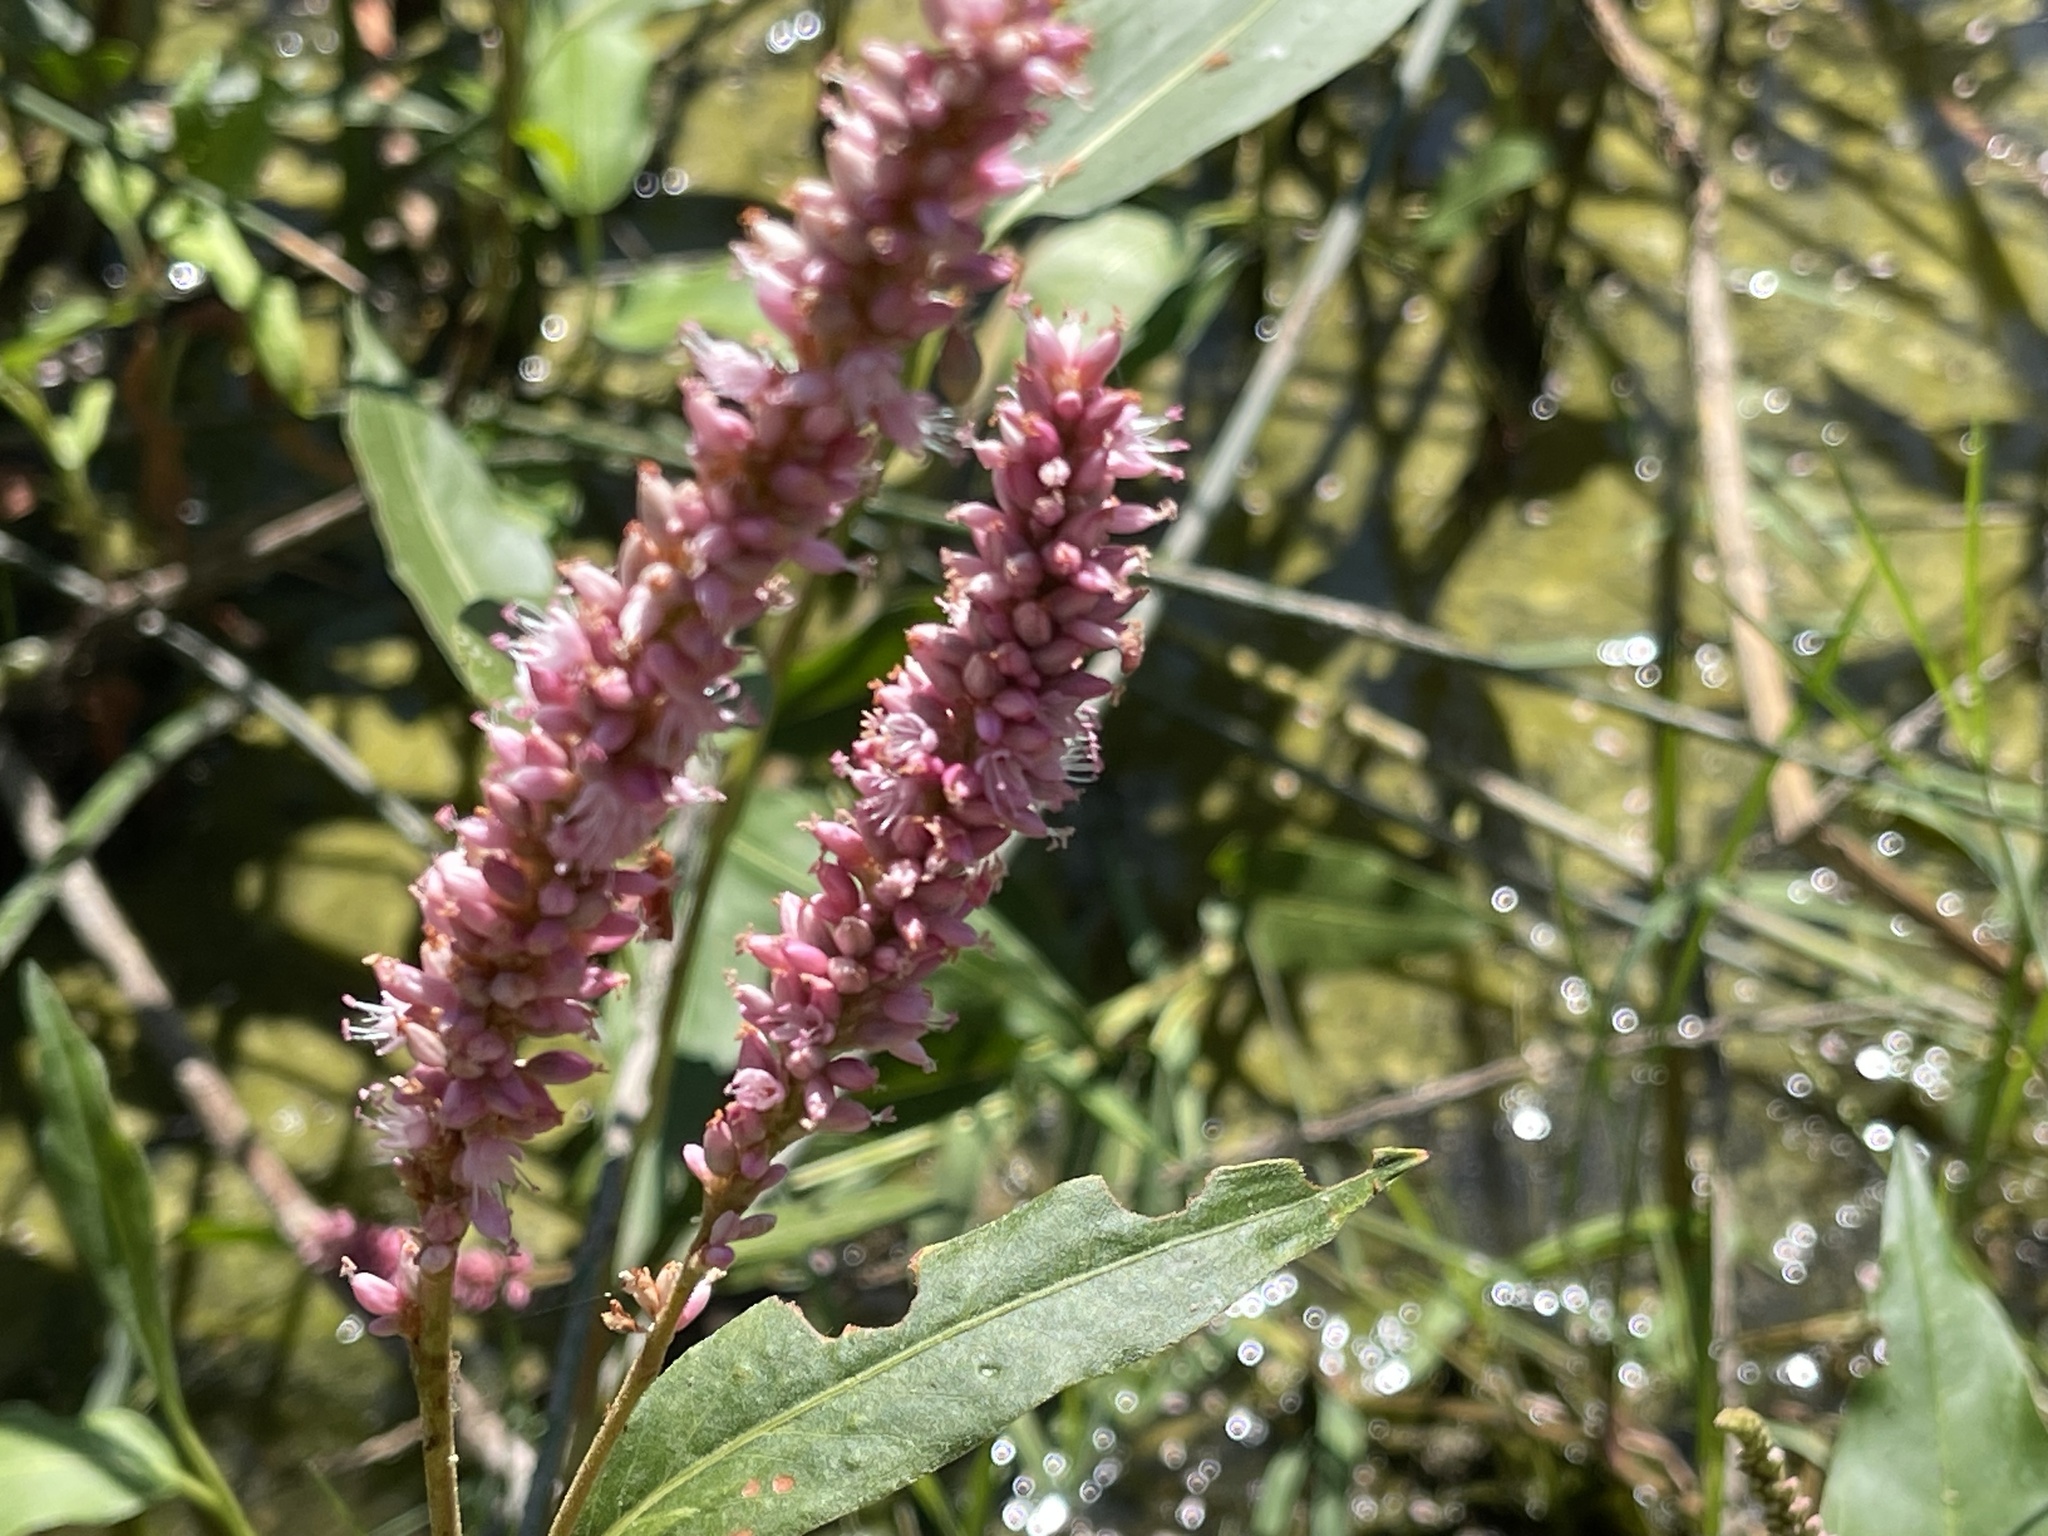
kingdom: Plantae
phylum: Tracheophyta
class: Magnoliopsida
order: Caryophyllales
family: Polygonaceae
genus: Persicaria
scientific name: Persicaria amphibia
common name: Amphibious bistort
